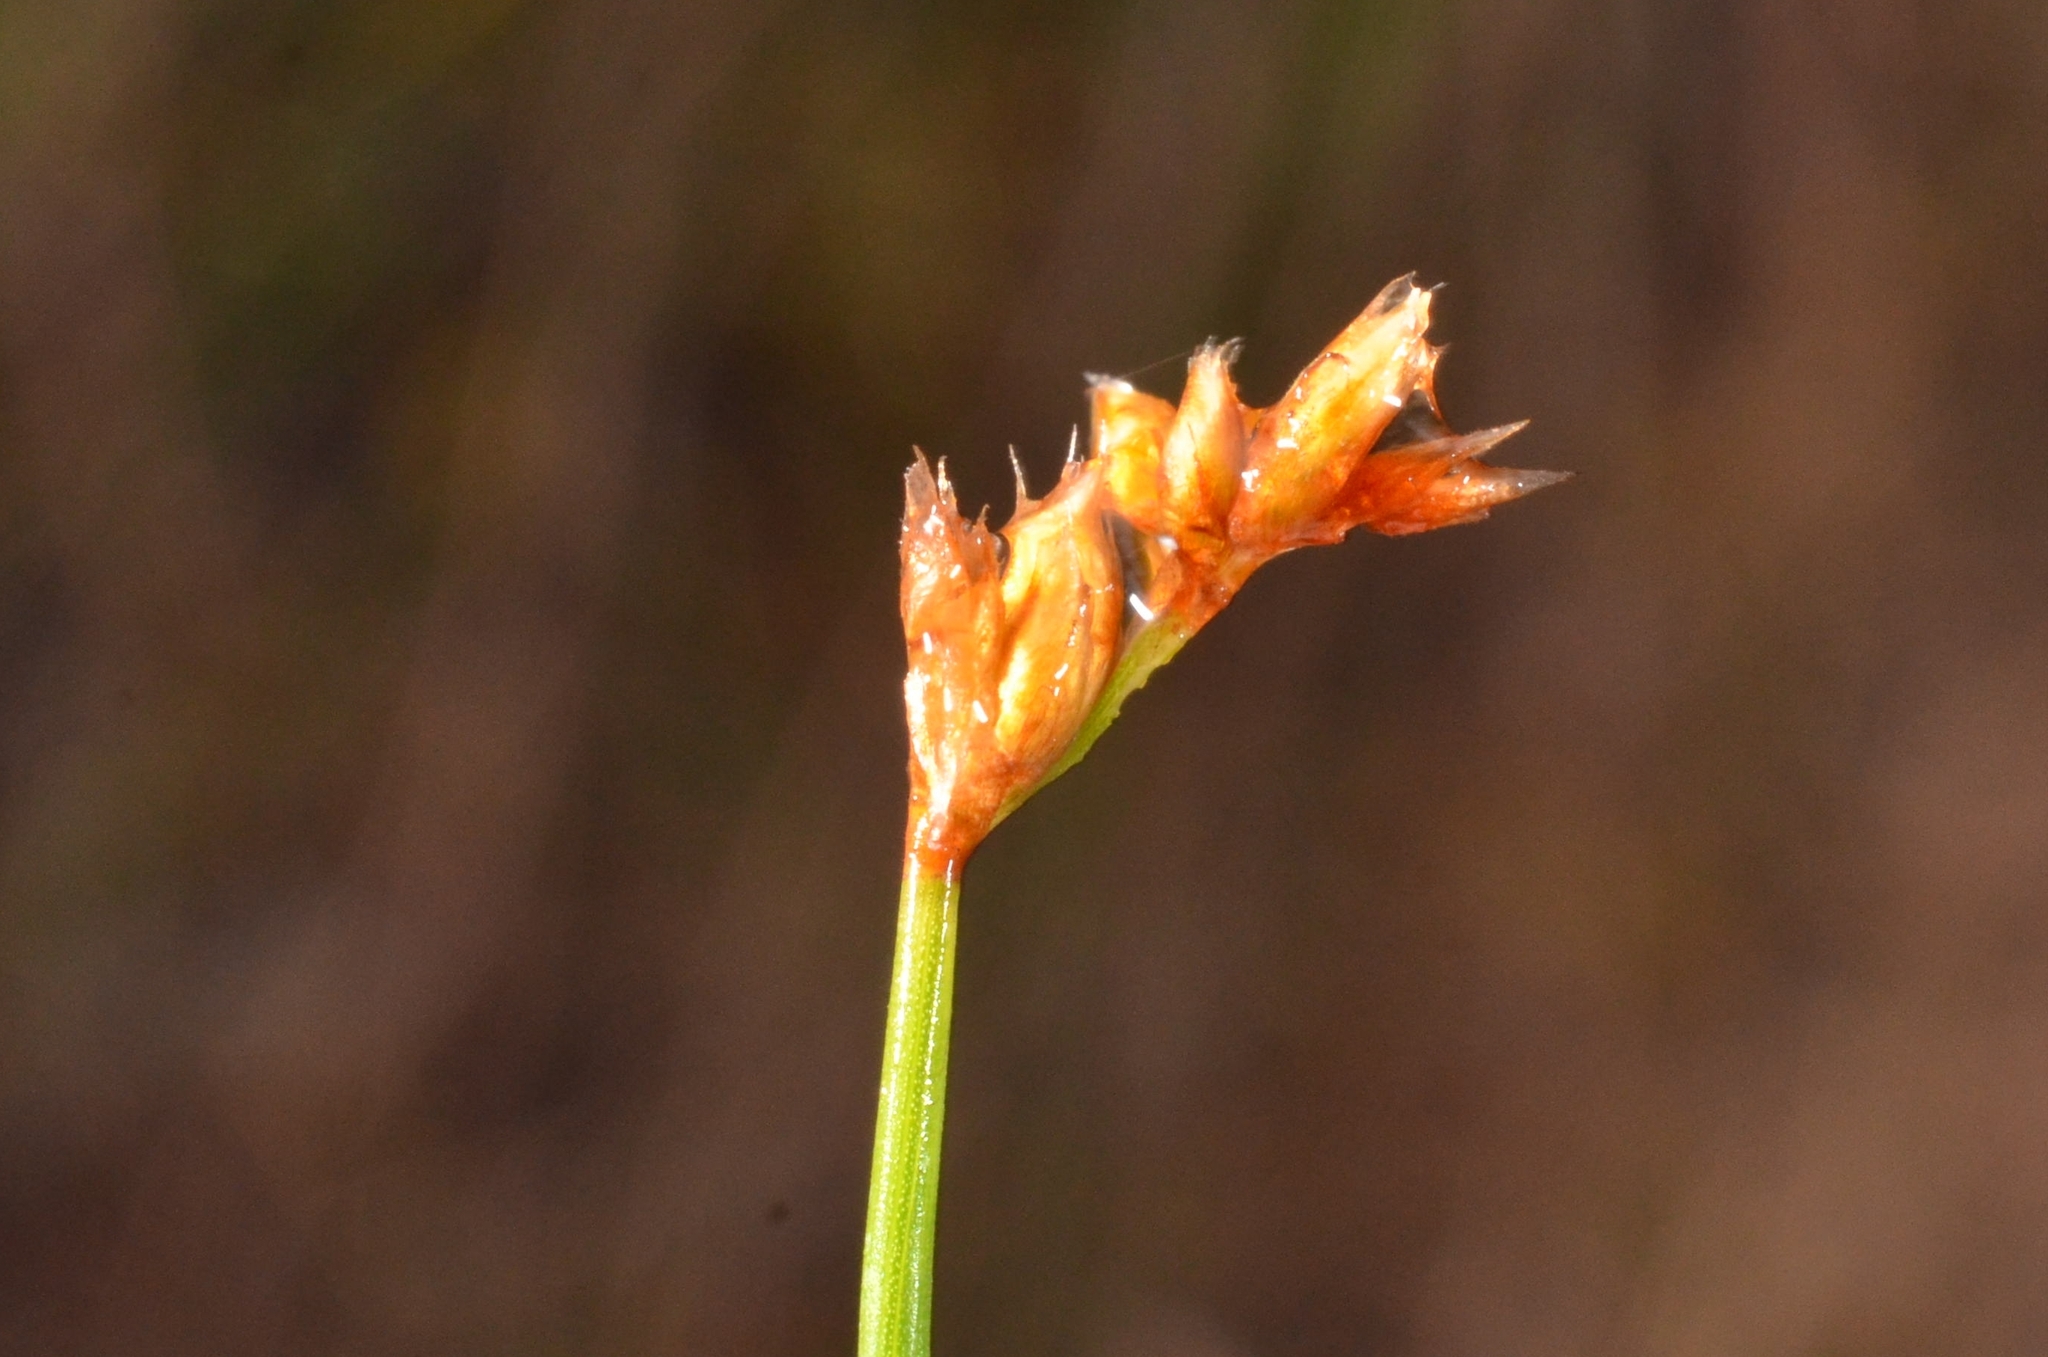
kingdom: Plantae
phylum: Tracheophyta
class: Liliopsida
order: Poales
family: Restionaceae
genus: Dapsilanthus
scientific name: Dapsilanthus disjunctus
